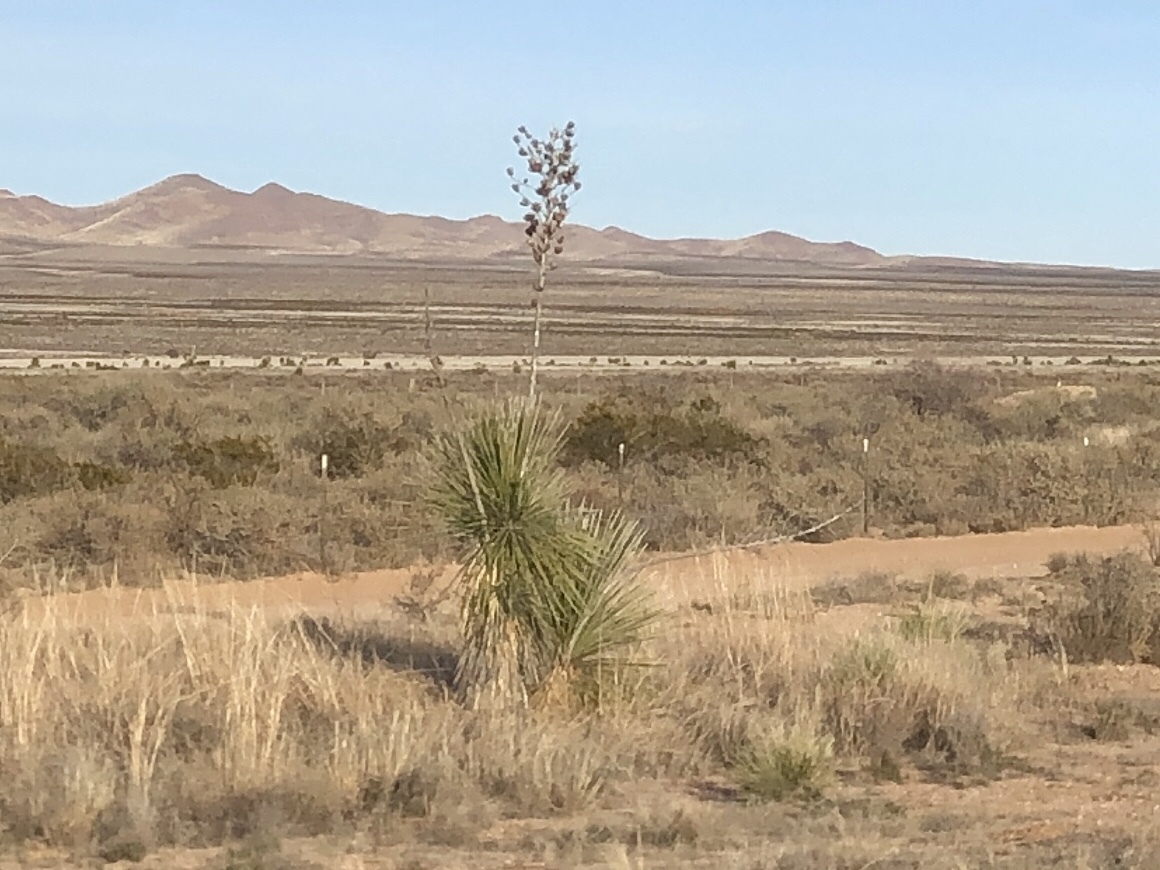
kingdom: Plantae
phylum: Tracheophyta
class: Liliopsida
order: Asparagales
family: Asparagaceae
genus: Yucca
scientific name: Yucca elata
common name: Palmella
